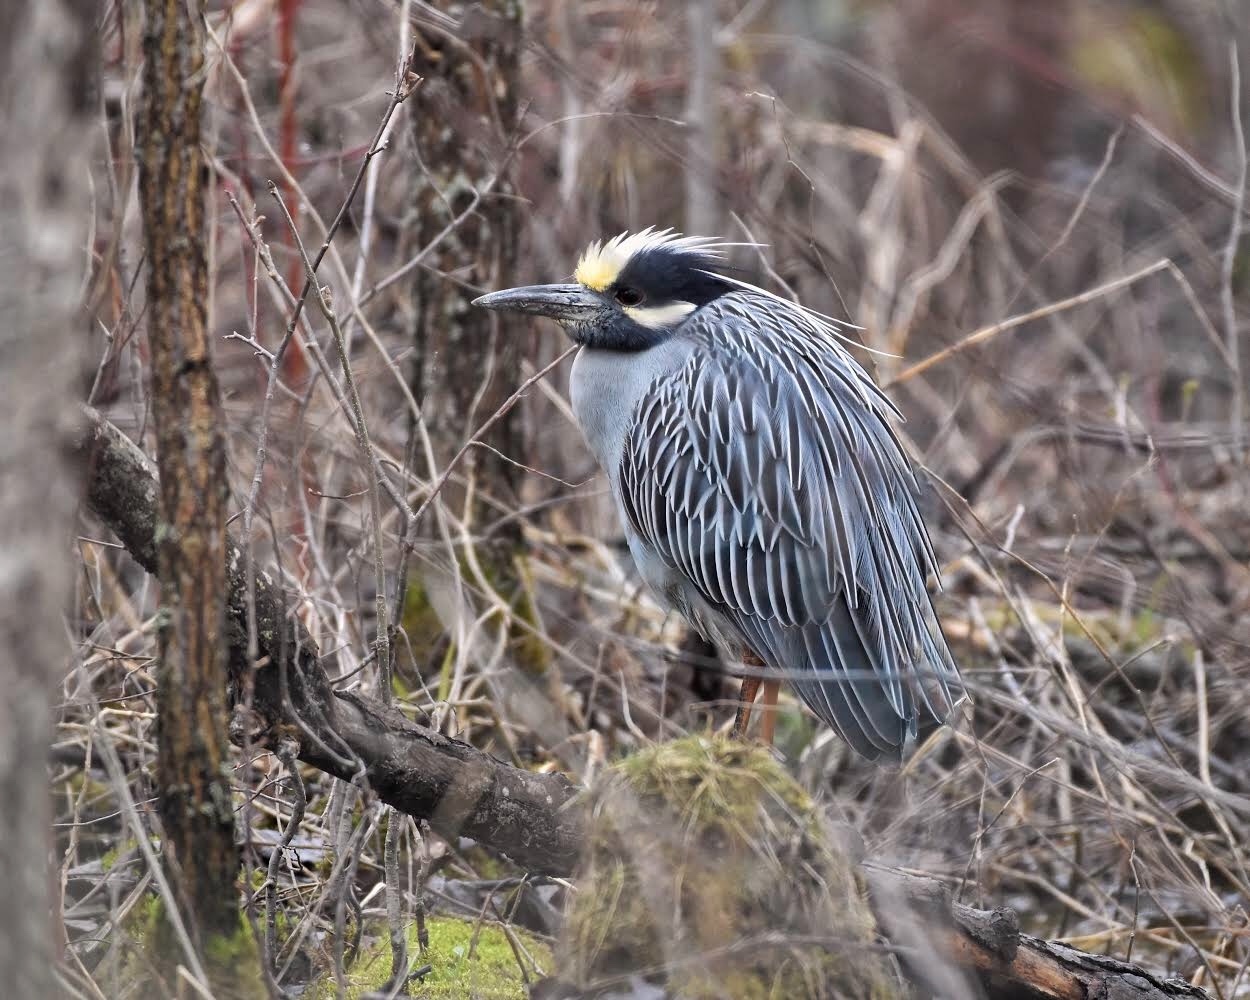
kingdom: Animalia
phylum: Chordata
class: Aves
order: Pelecaniformes
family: Ardeidae
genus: Nyctanassa
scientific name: Nyctanassa violacea
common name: Yellow-crowned night heron
